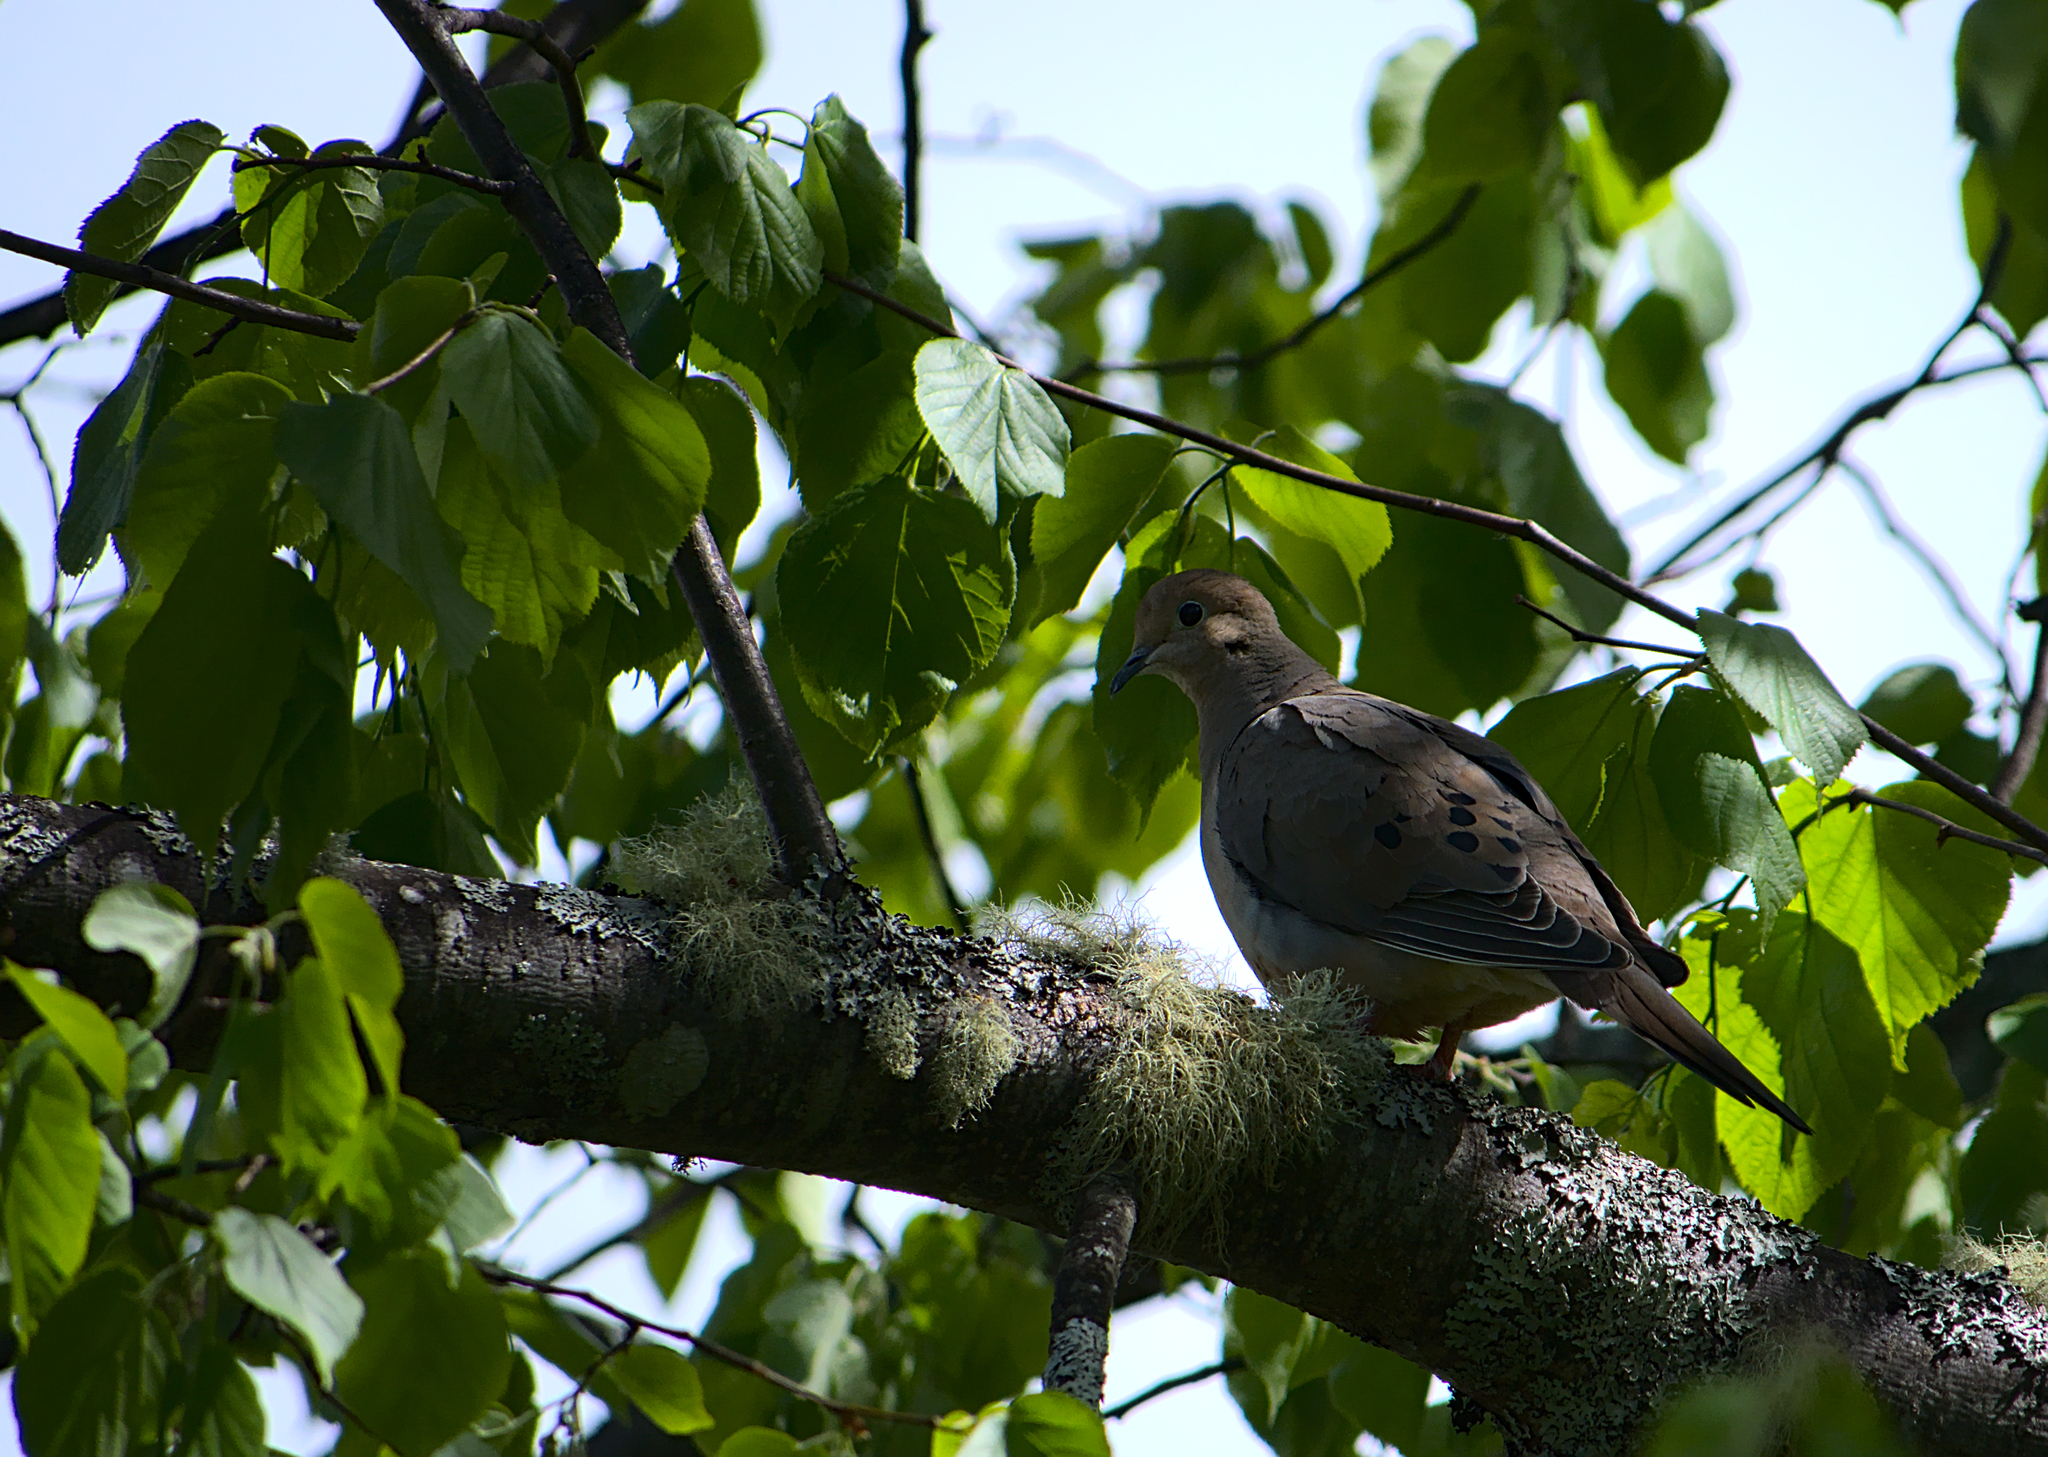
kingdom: Animalia
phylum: Chordata
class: Aves
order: Columbiformes
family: Columbidae
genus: Zenaida
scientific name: Zenaida macroura
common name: Mourning dove
